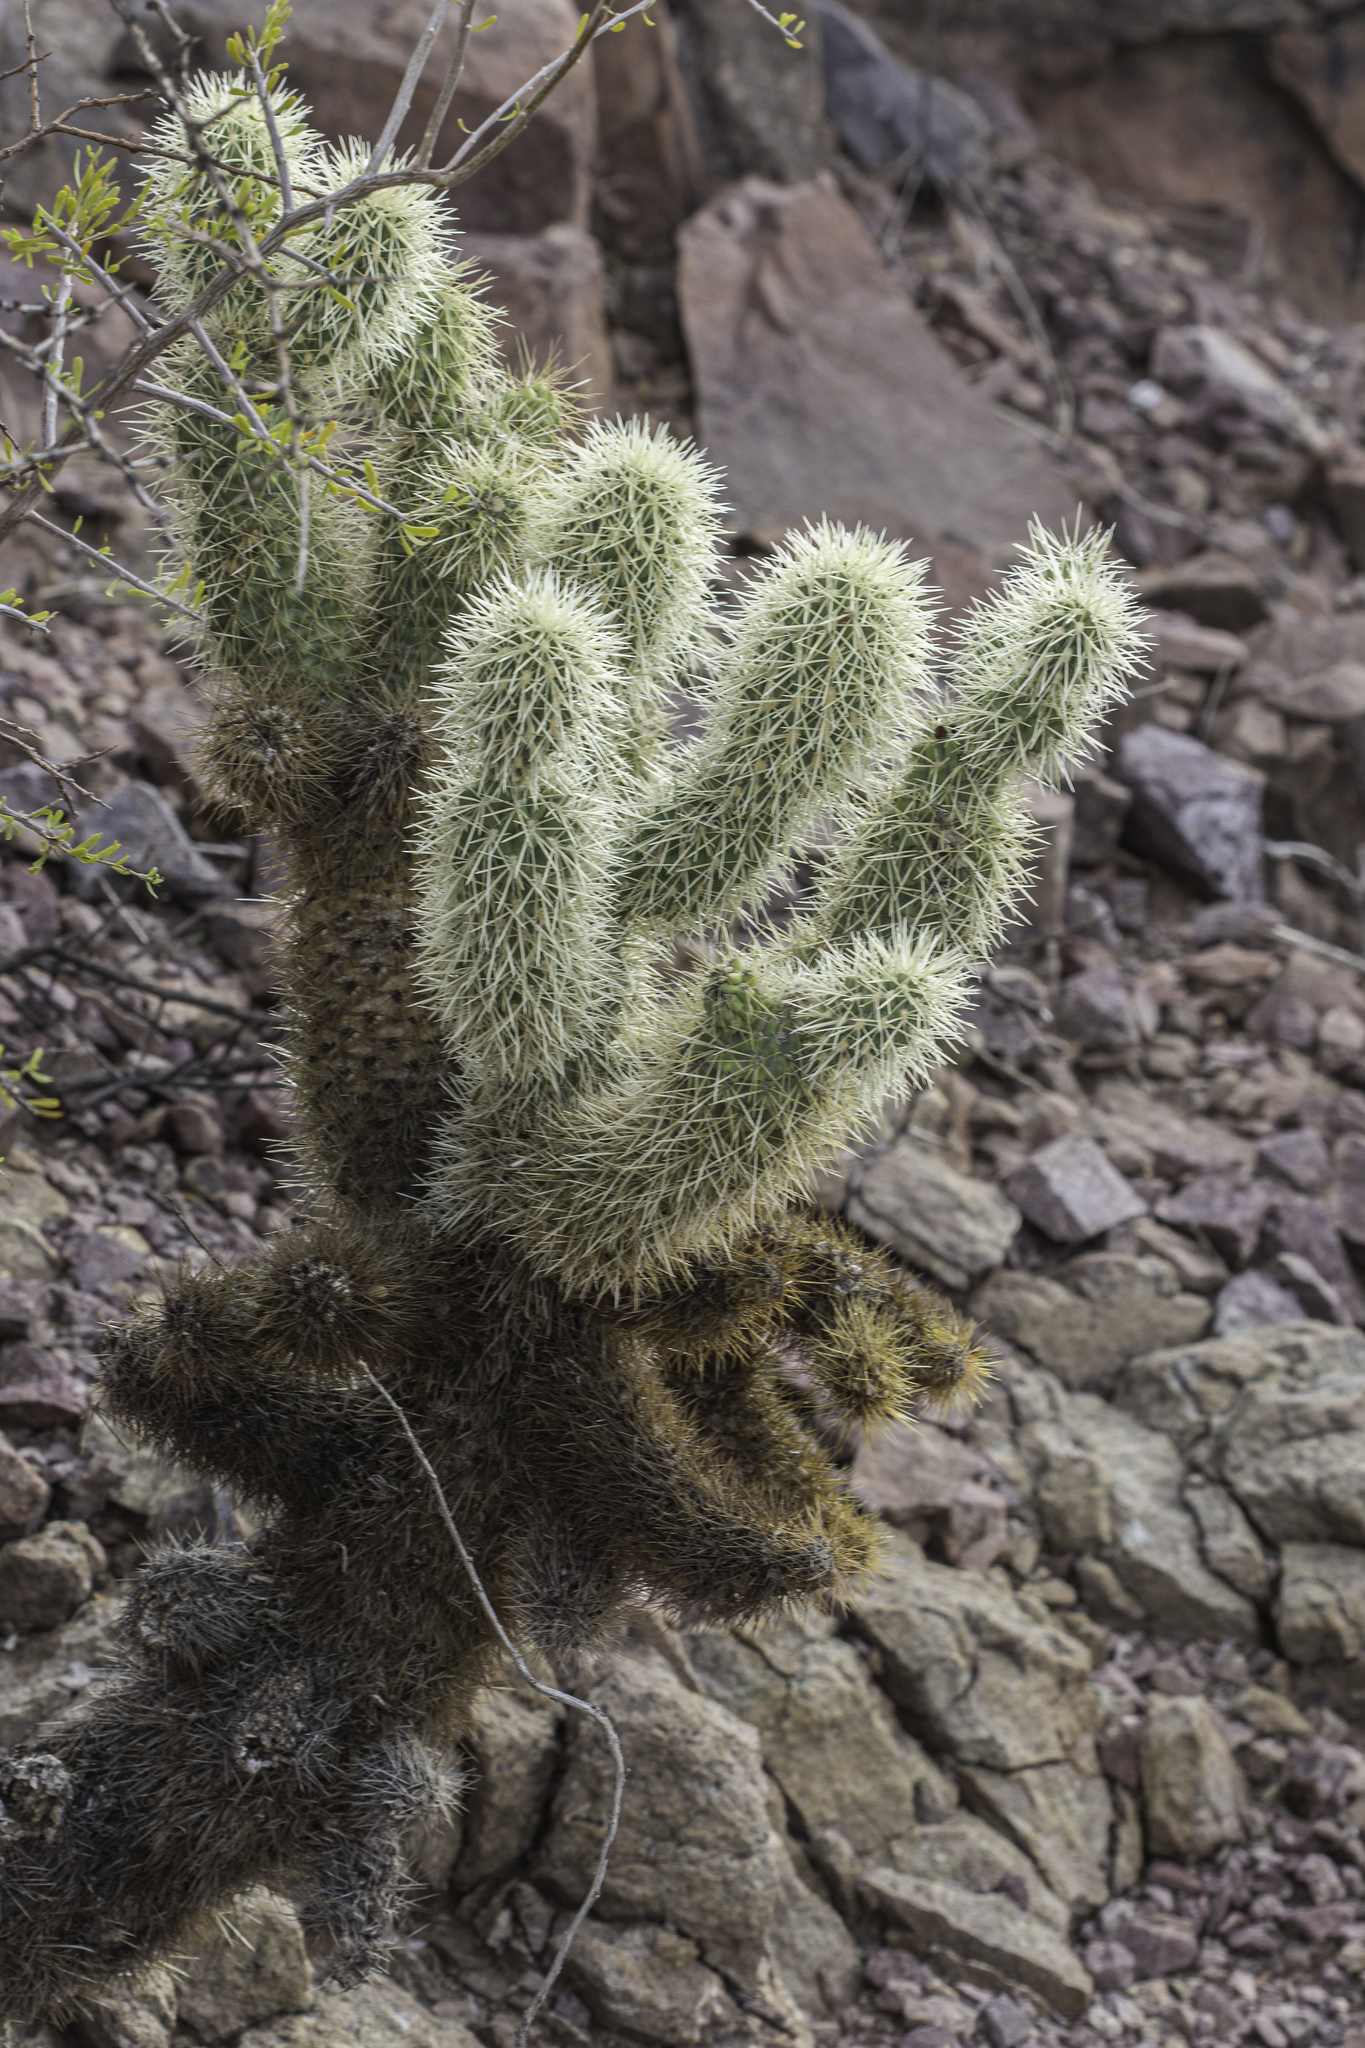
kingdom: Plantae
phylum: Tracheophyta
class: Magnoliopsida
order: Caryophyllales
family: Cactaceae
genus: Cylindropuntia
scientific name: Cylindropuntia fosbergii
